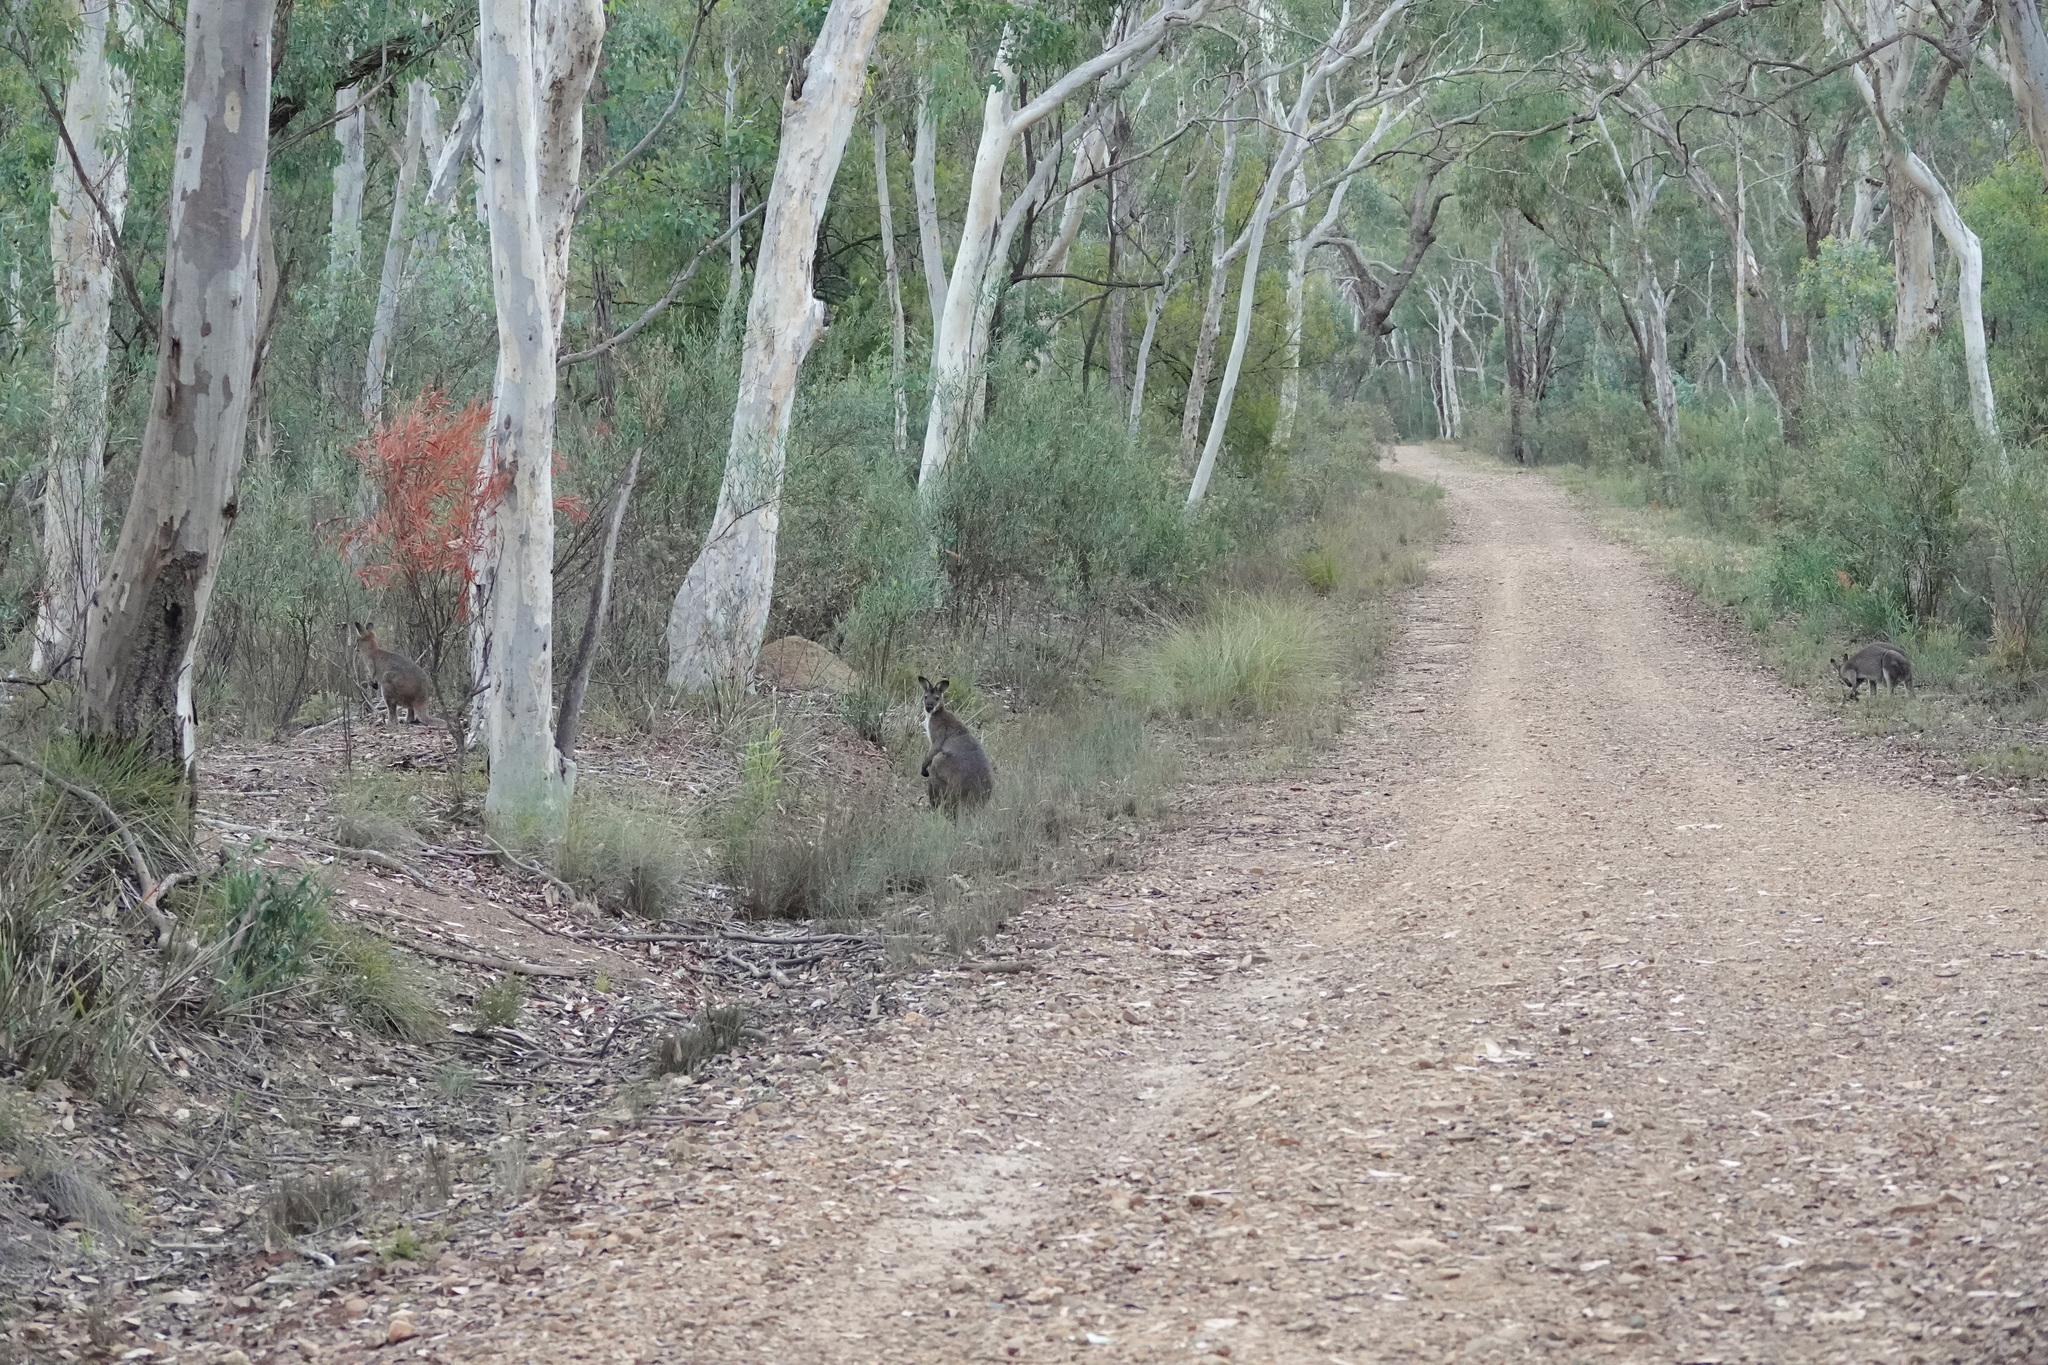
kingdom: Animalia
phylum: Chordata
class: Mammalia
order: Diprotodontia
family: Macropodidae
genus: Notamacropus
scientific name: Notamacropus rufogriseus
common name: Red-necked wallaby
